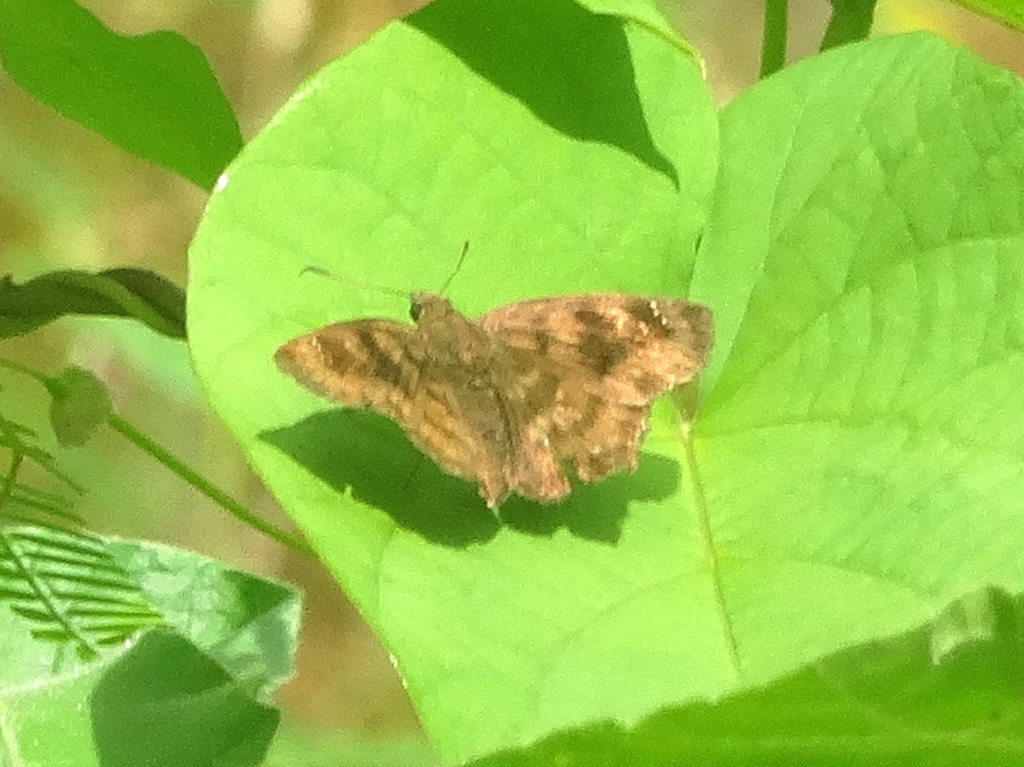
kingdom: Animalia
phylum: Arthropoda
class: Insecta
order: Lepidoptera
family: Hesperiidae
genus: Nisoniades
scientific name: Nisoniades
